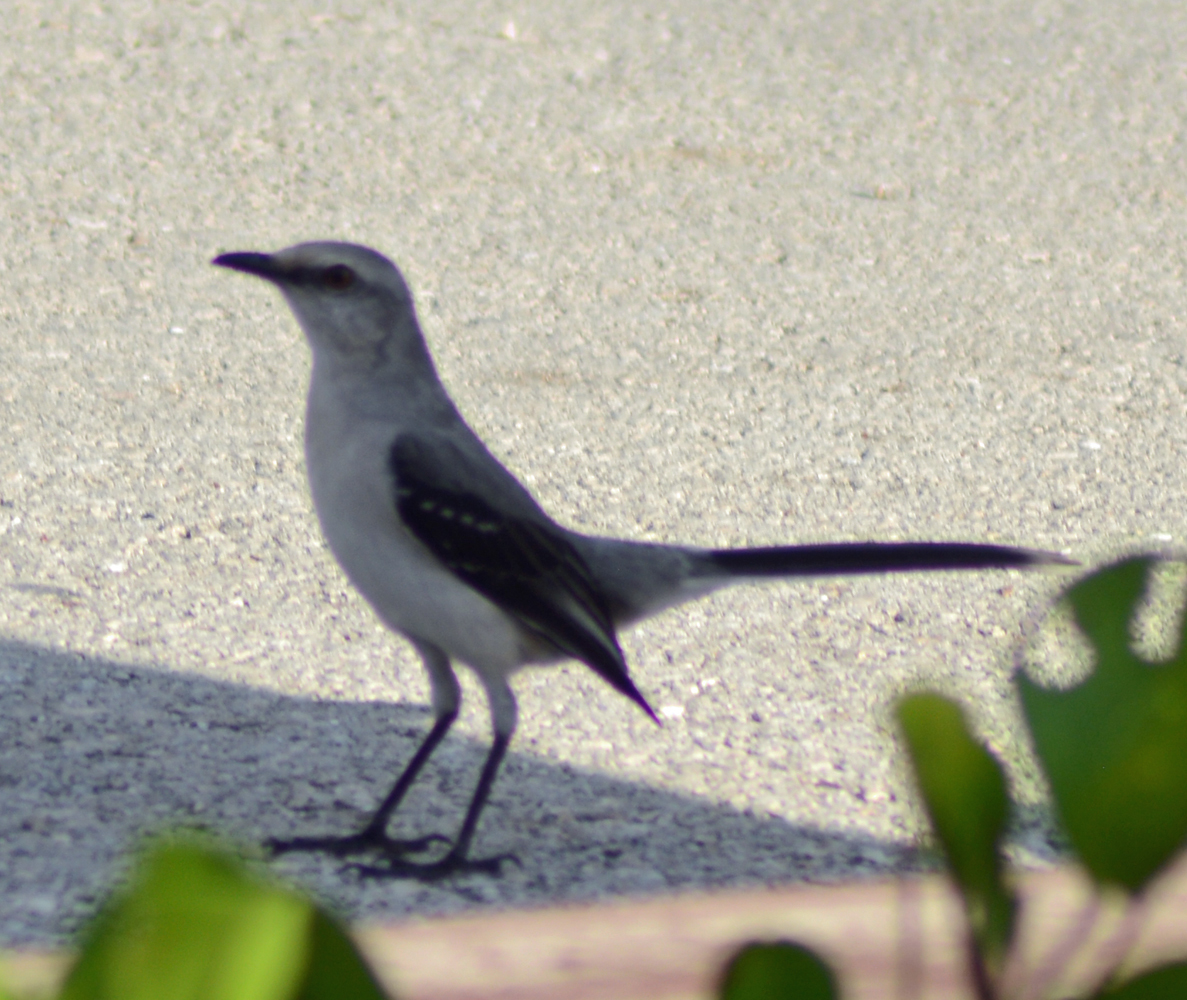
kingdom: Animalia
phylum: Chordata
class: Aves
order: Passeriformes
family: Mimidae
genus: Mimus
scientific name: Mimus gilvus
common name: Tropical mockingbird
